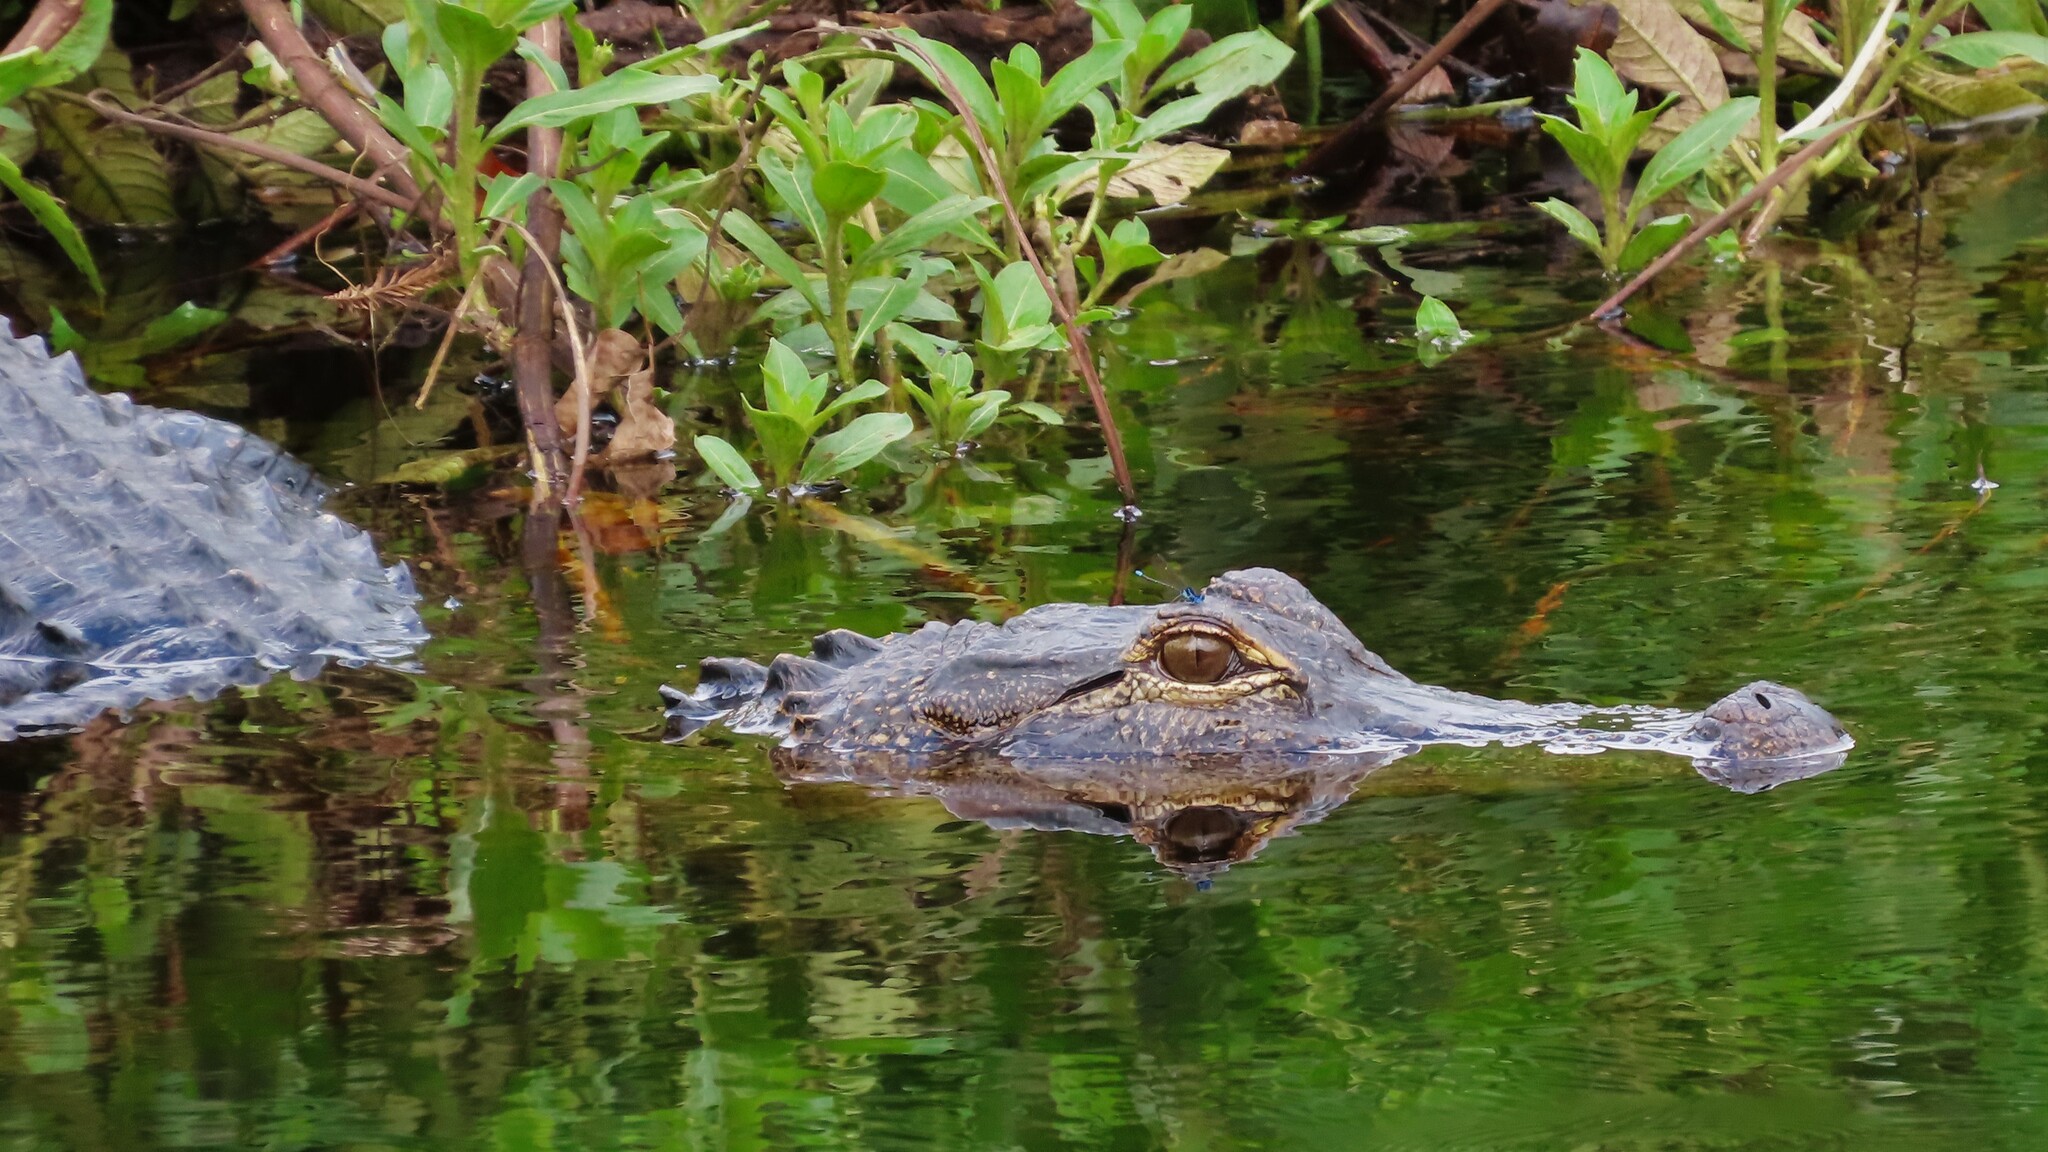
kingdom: Animalia
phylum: Chordata
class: Crocodylia
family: Alligatoridae
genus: Alligator
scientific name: Alligator mississippiensis
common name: American alligator
